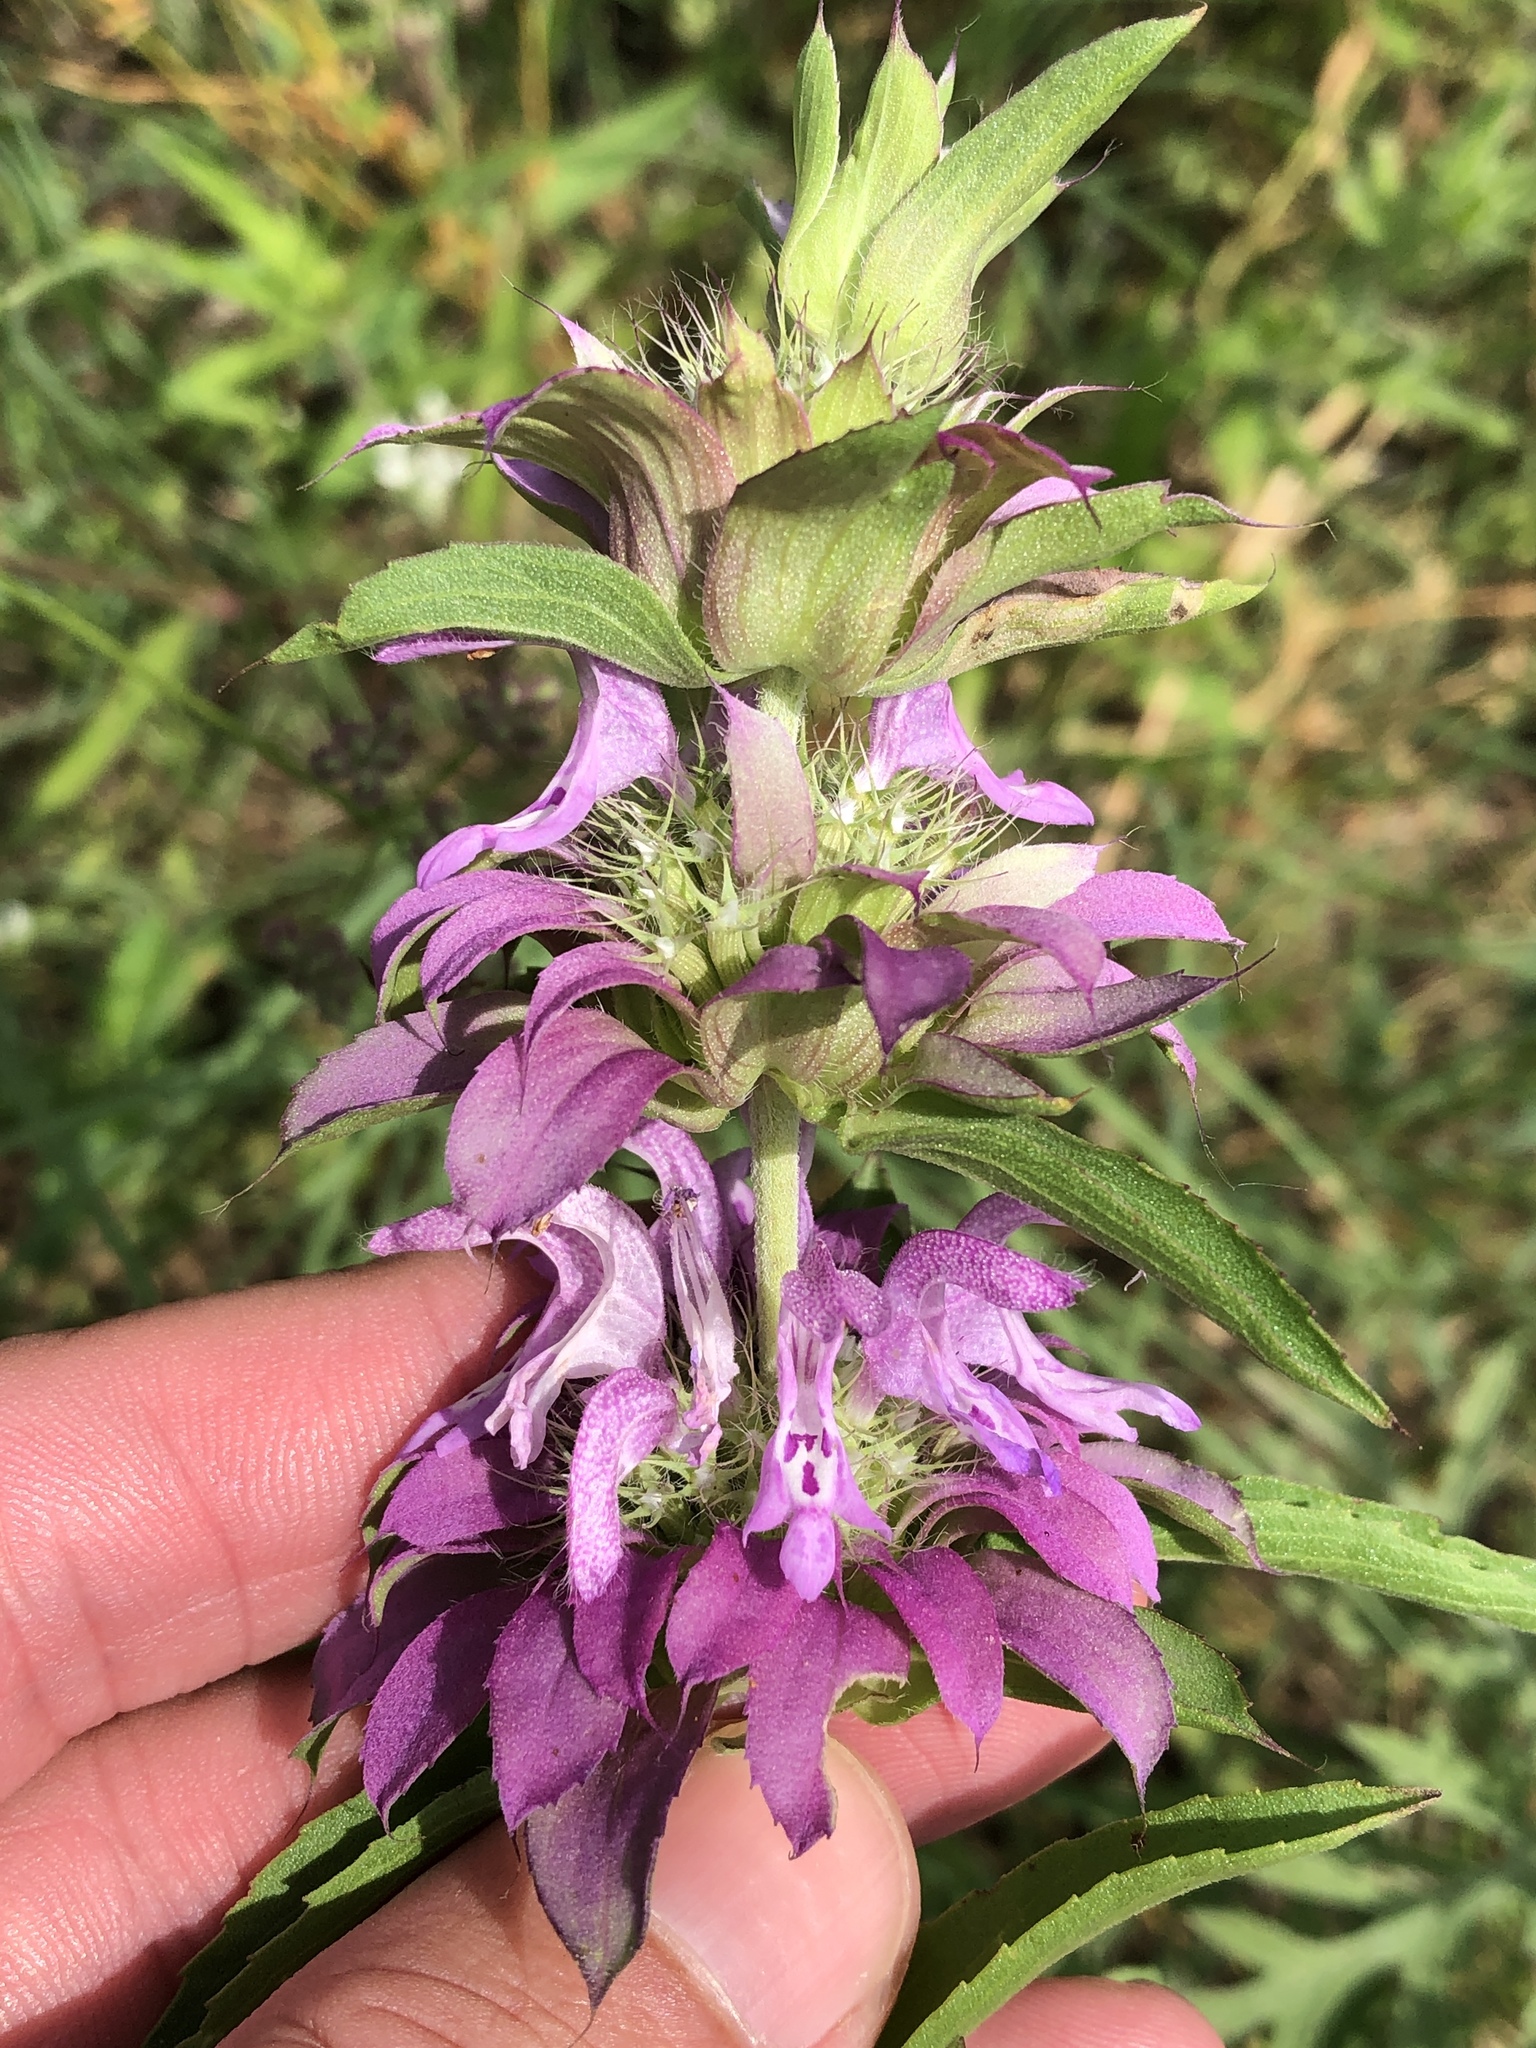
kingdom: Plantae
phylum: Tracheophyta
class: Magnoliopsida
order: Lamiales
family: Lamiaceae
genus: Monarda
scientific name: Monarda citriodora
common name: Lemon beebalm
